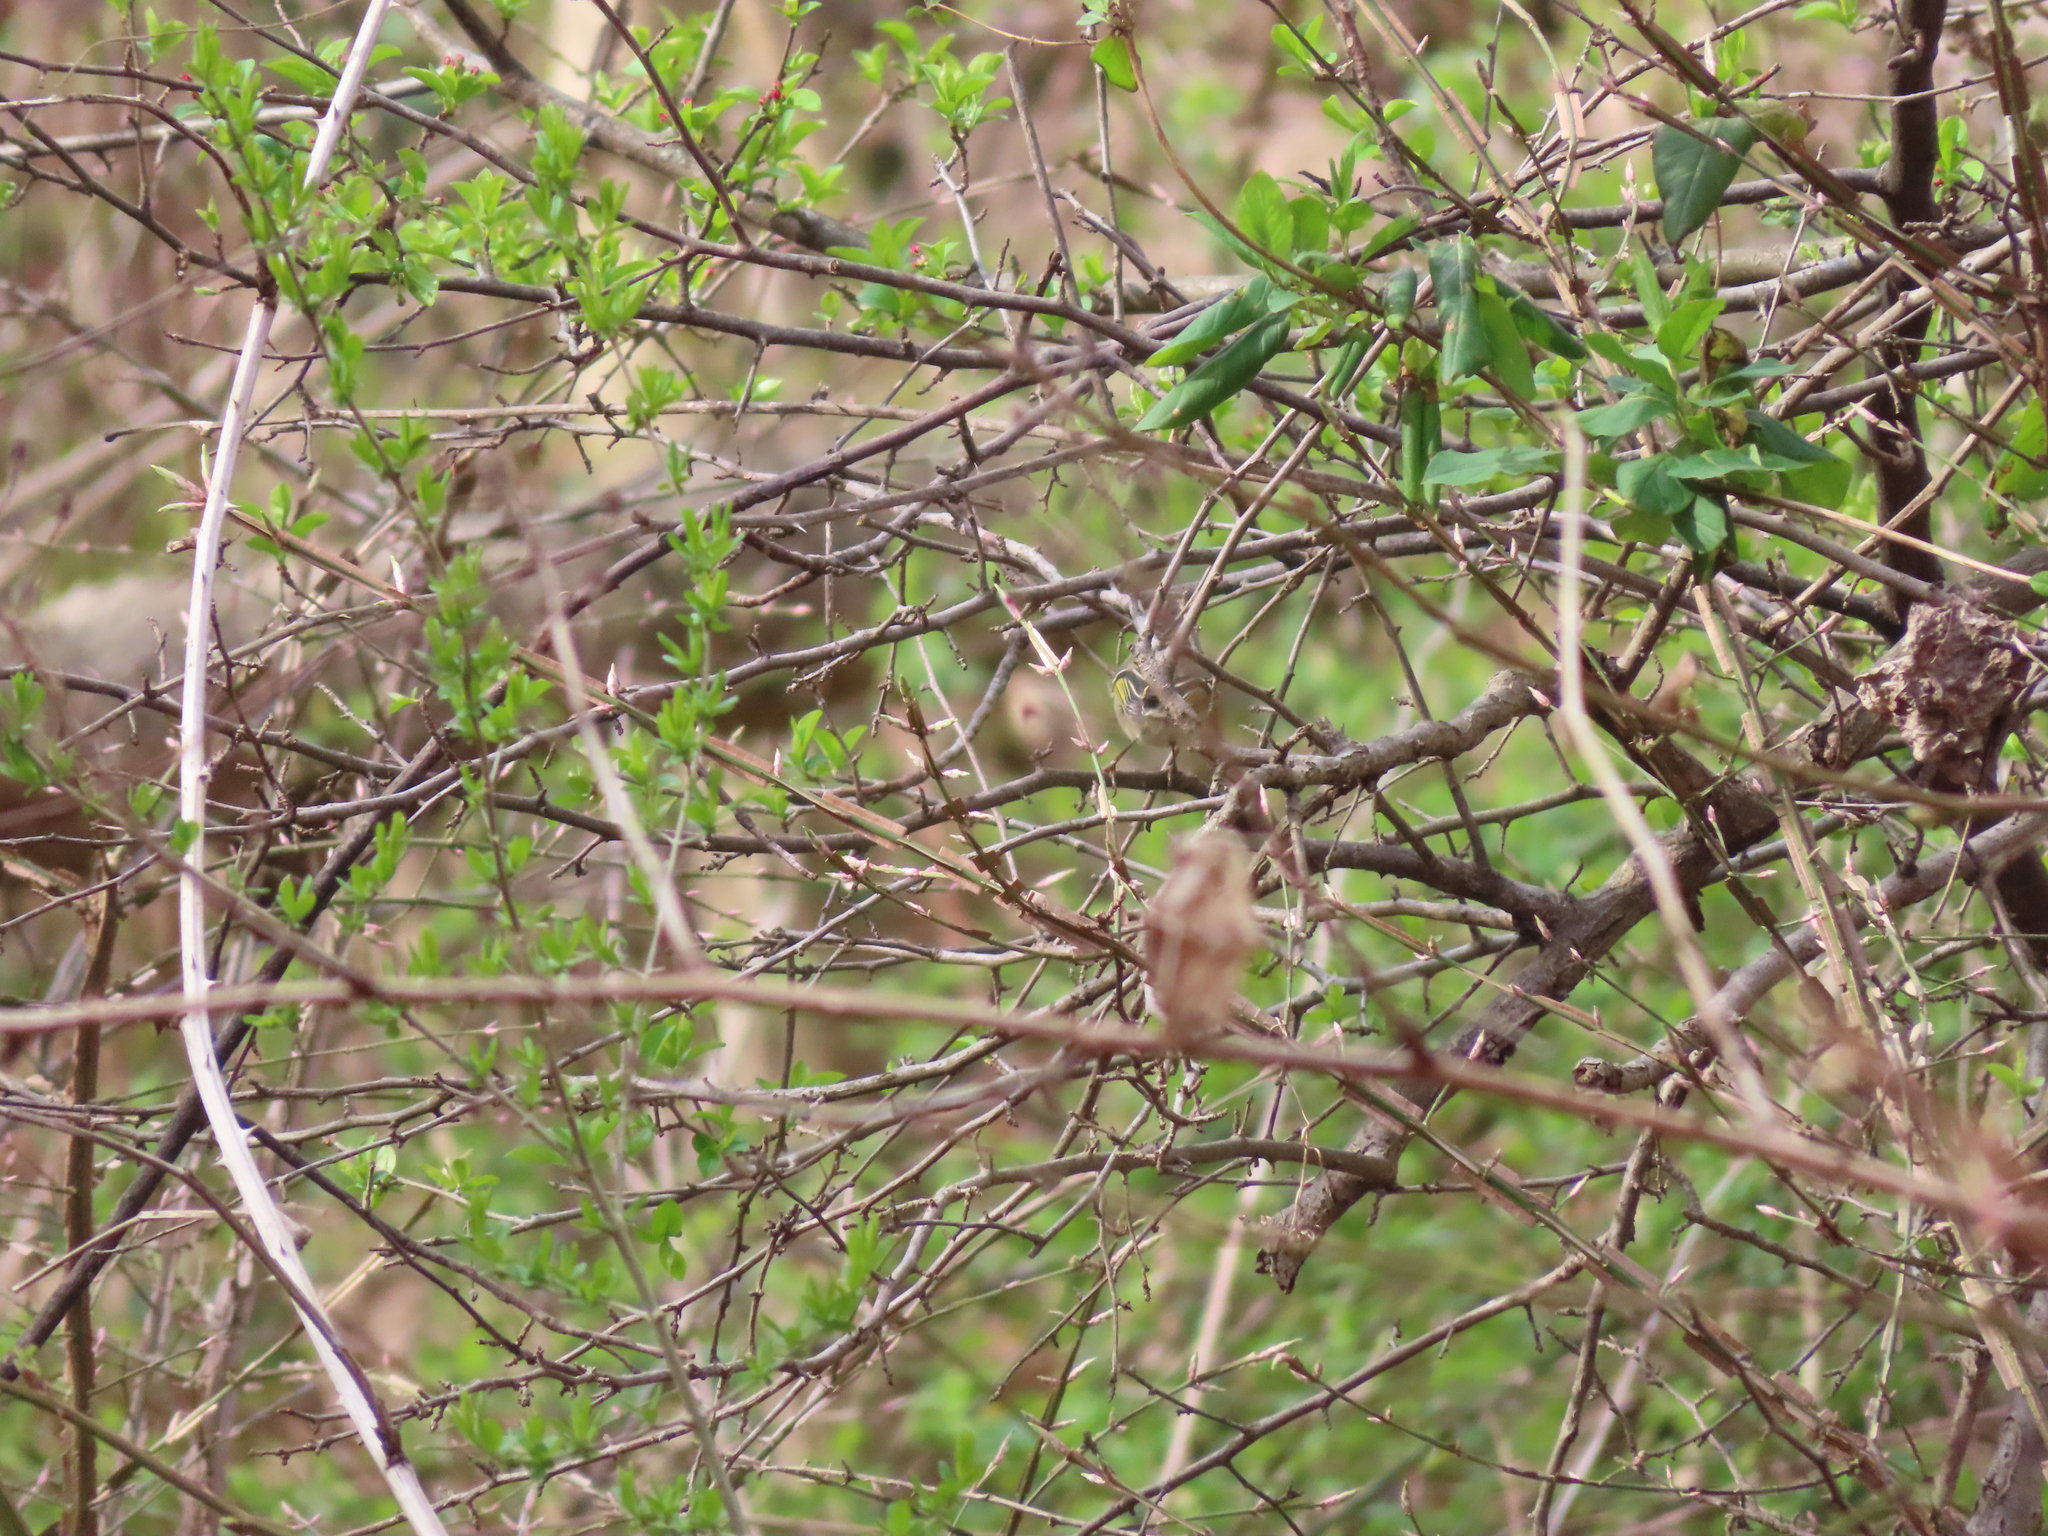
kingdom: Animalia
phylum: Chordata
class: Aves
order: Passeriformes
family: Regulidae
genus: Regulus
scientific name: Regulus calendula
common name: Ruby-crowned kinglet
